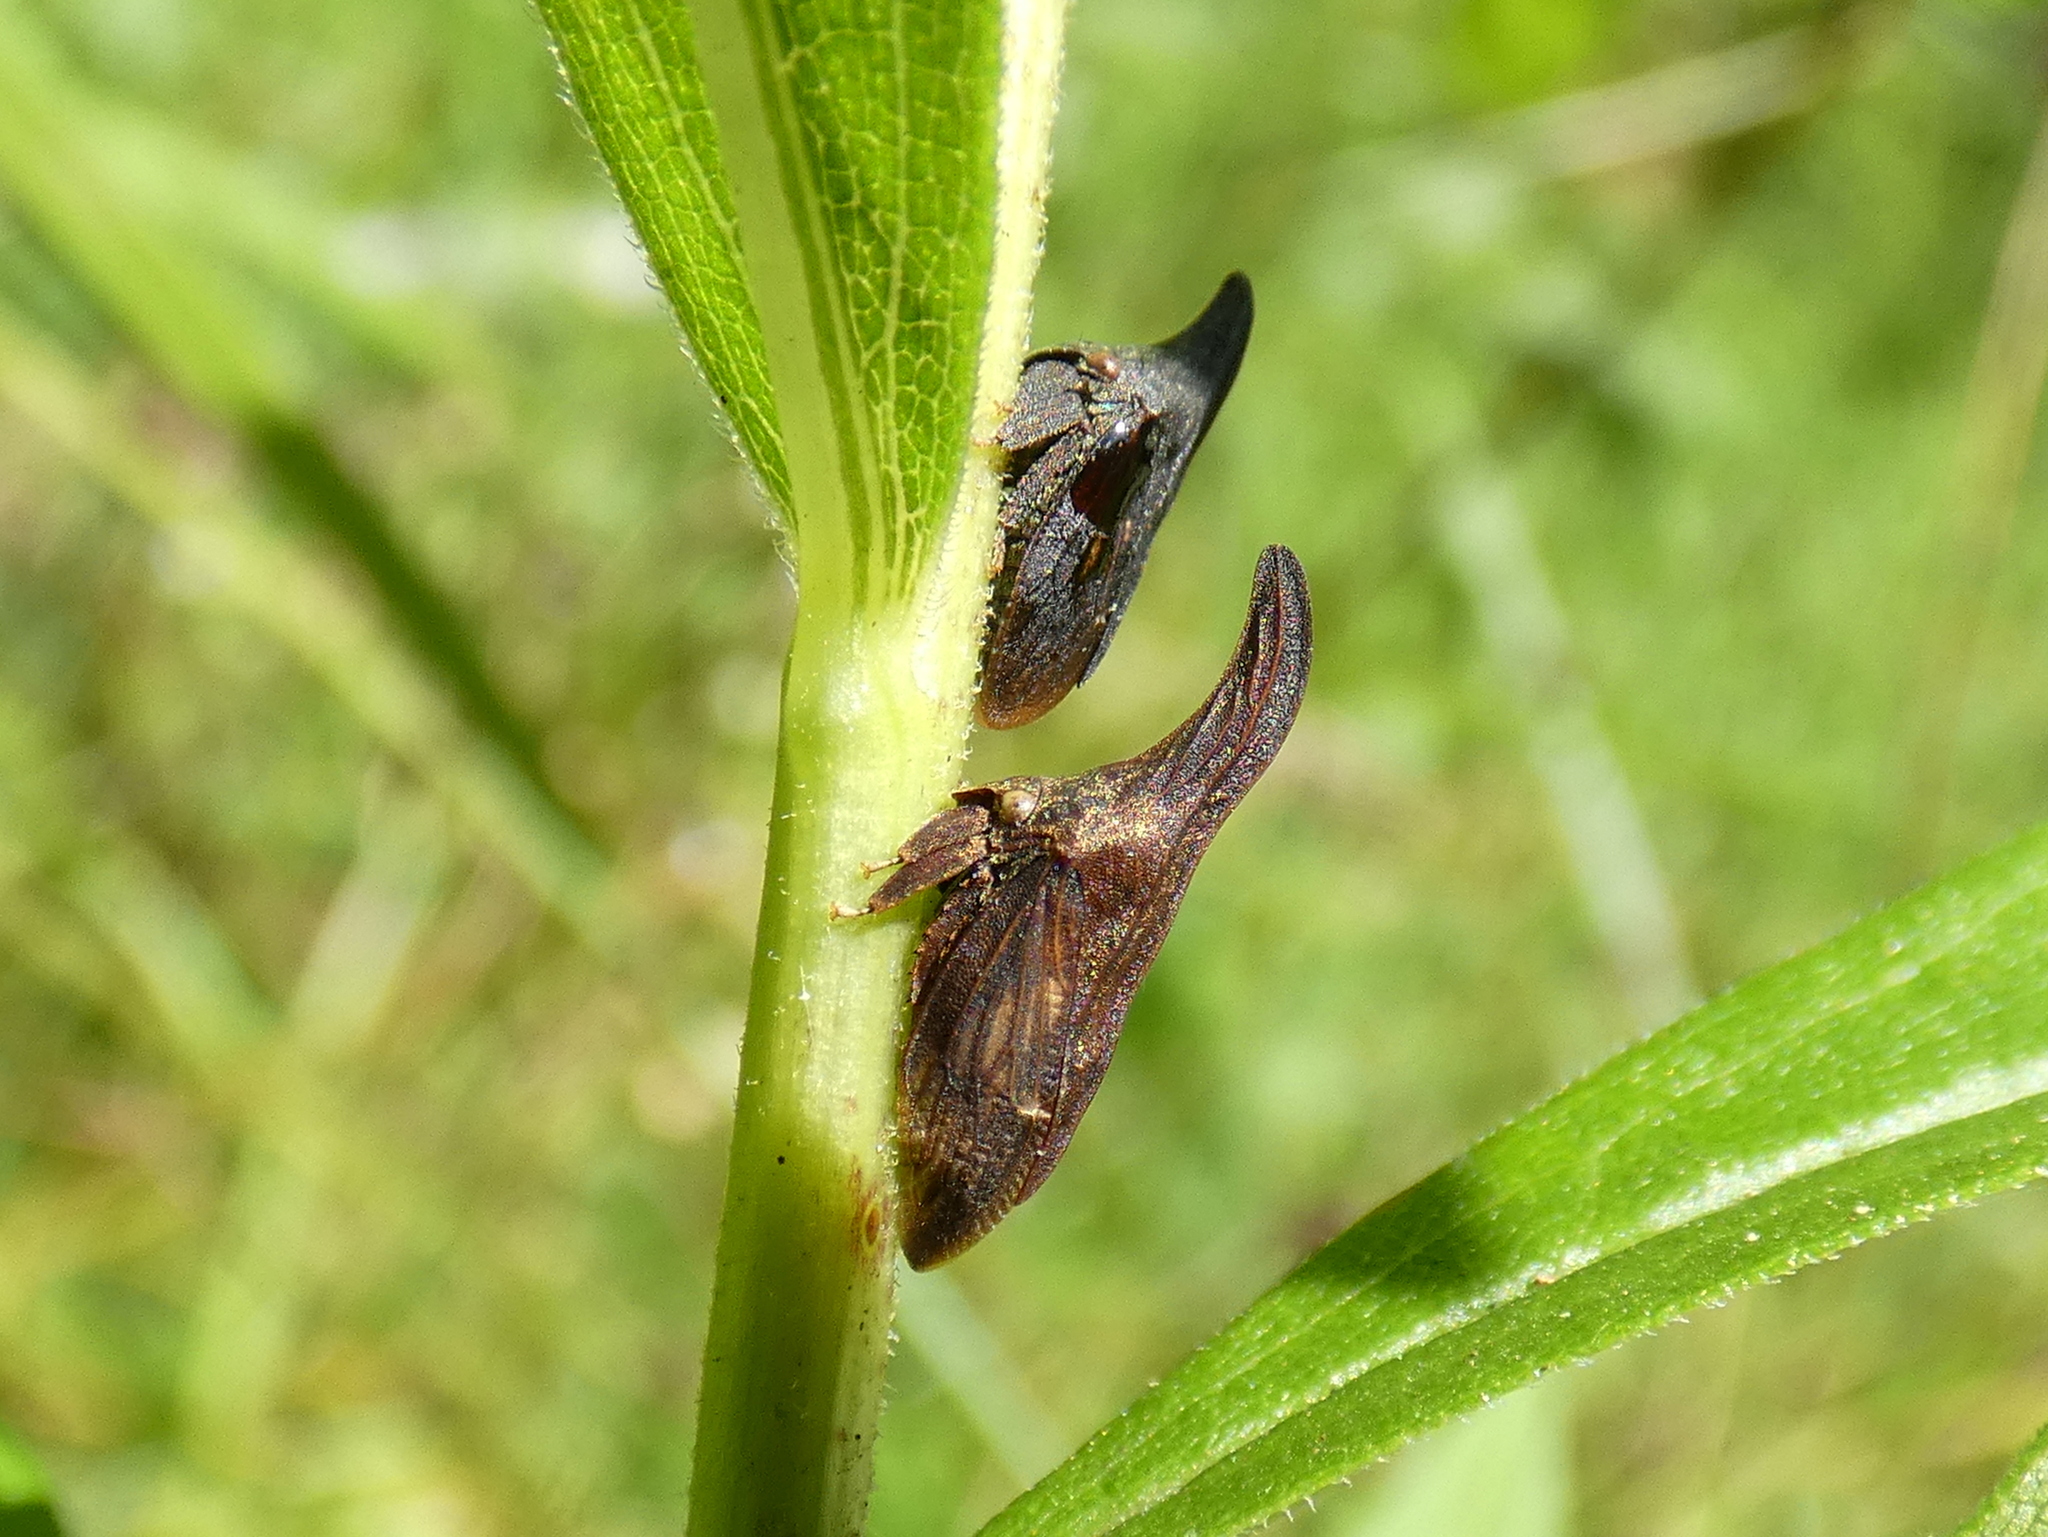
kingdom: Animalia
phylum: Arthropoda
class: Insecta
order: Hemiptera
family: Membracidae
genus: Enchenopa
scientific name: Enchenopa latipes
